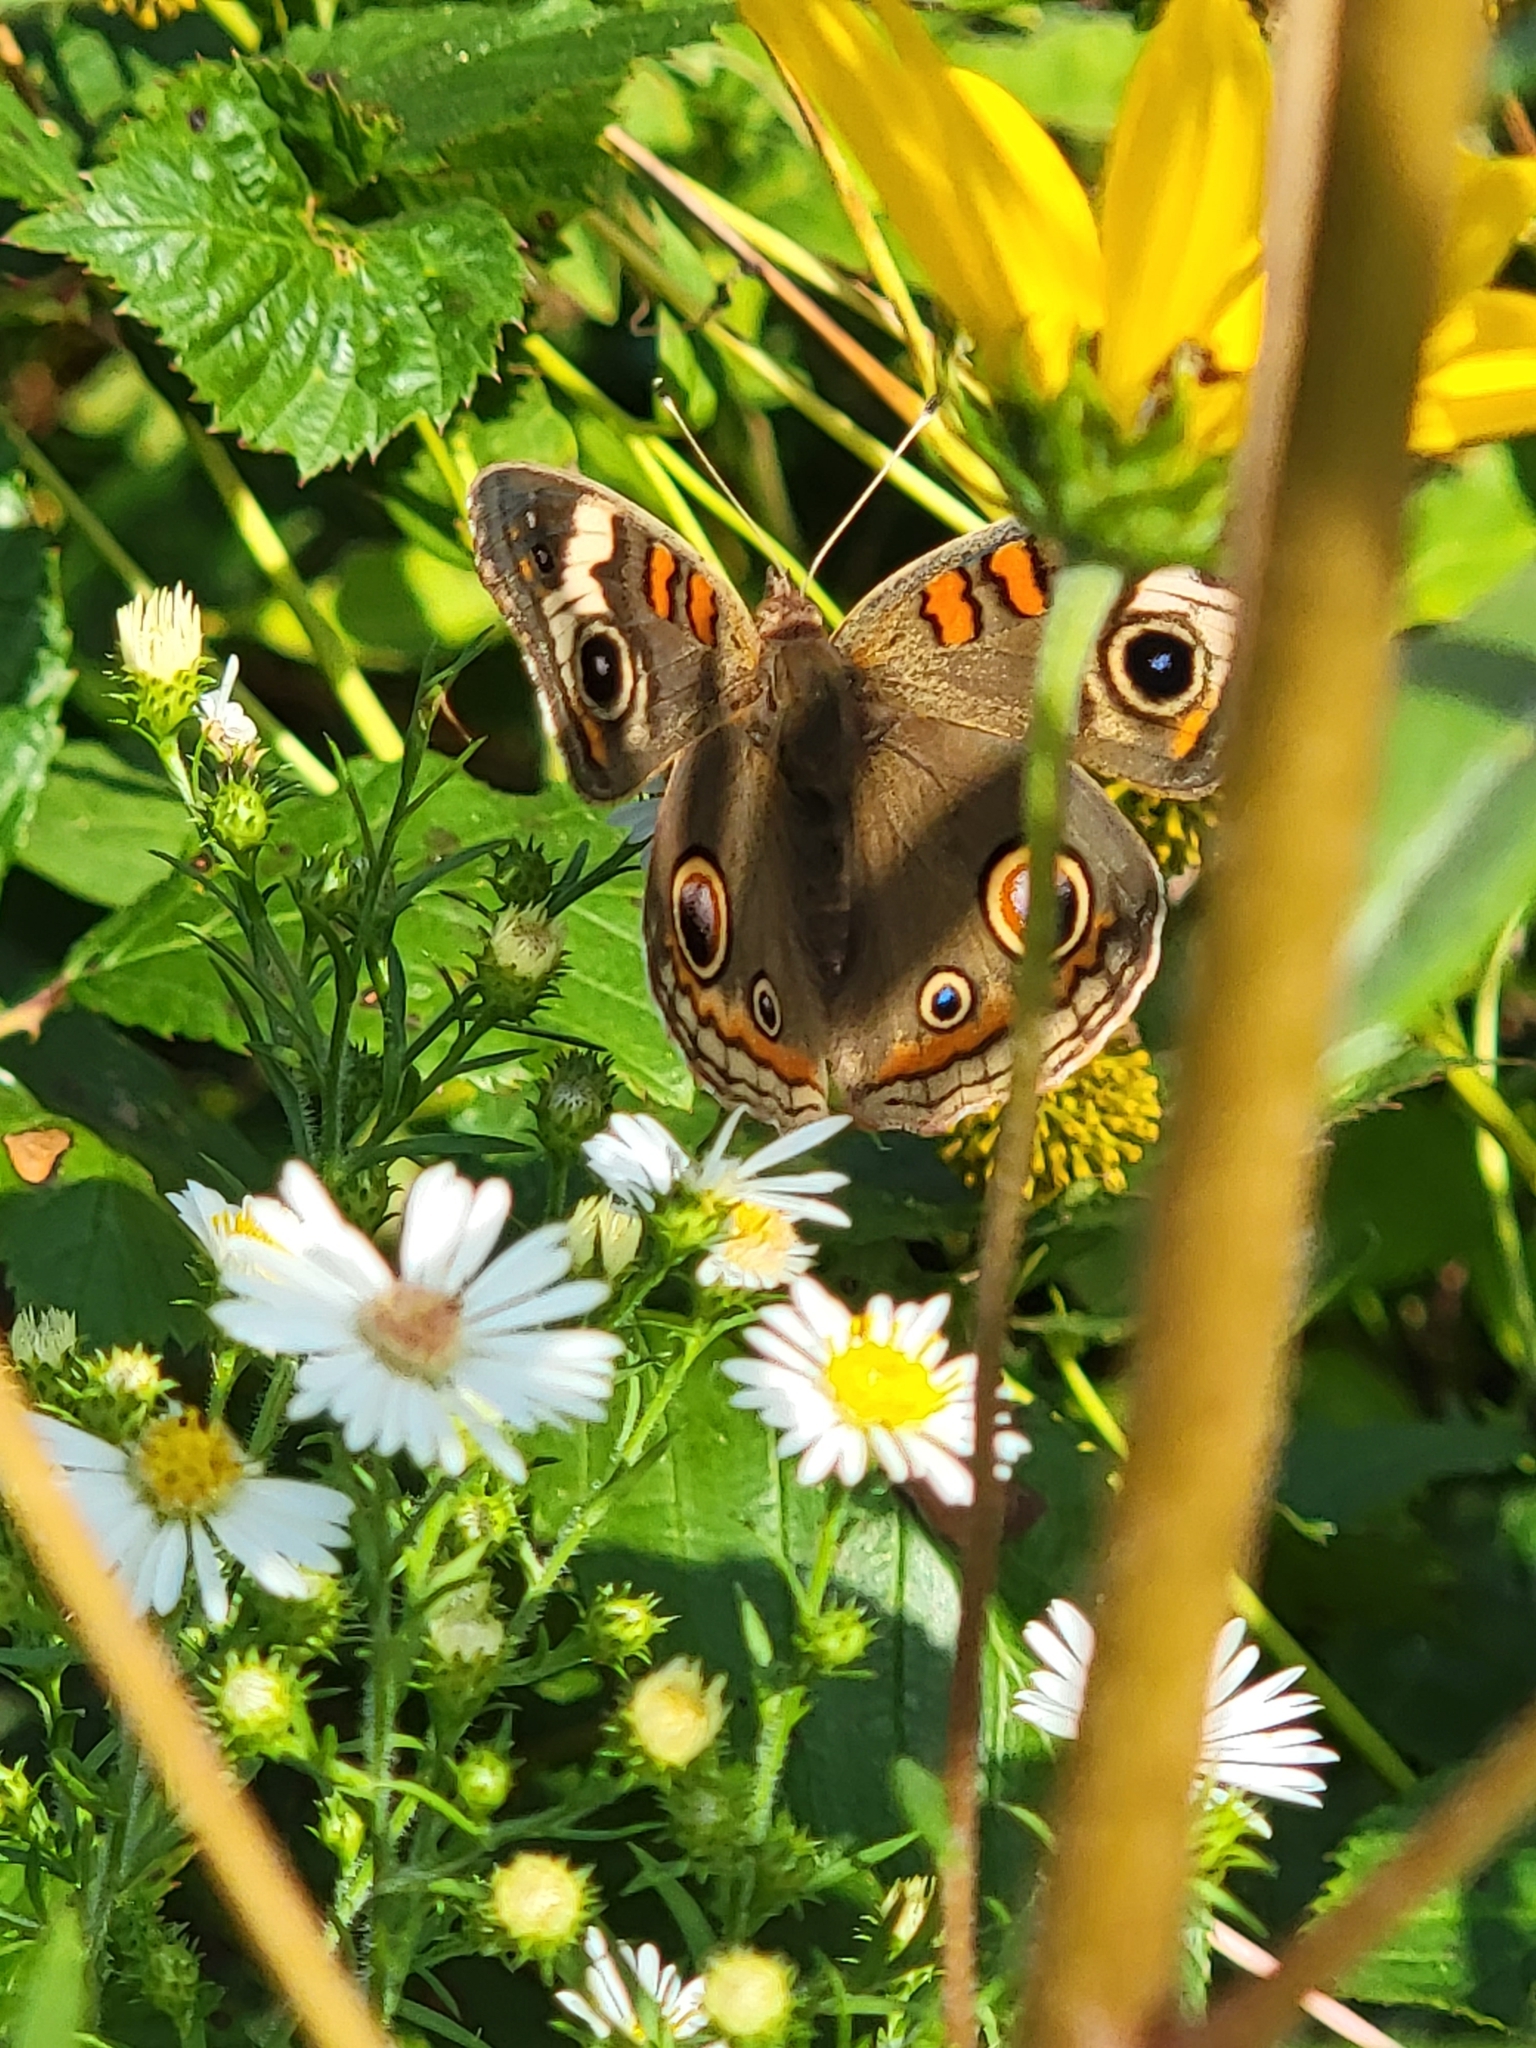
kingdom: Animalia
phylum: Arthropoda
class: Insecta
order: Lepidoptera
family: Nymphalidae
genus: Junonia
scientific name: Junonia coenia
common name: Common buckeye
